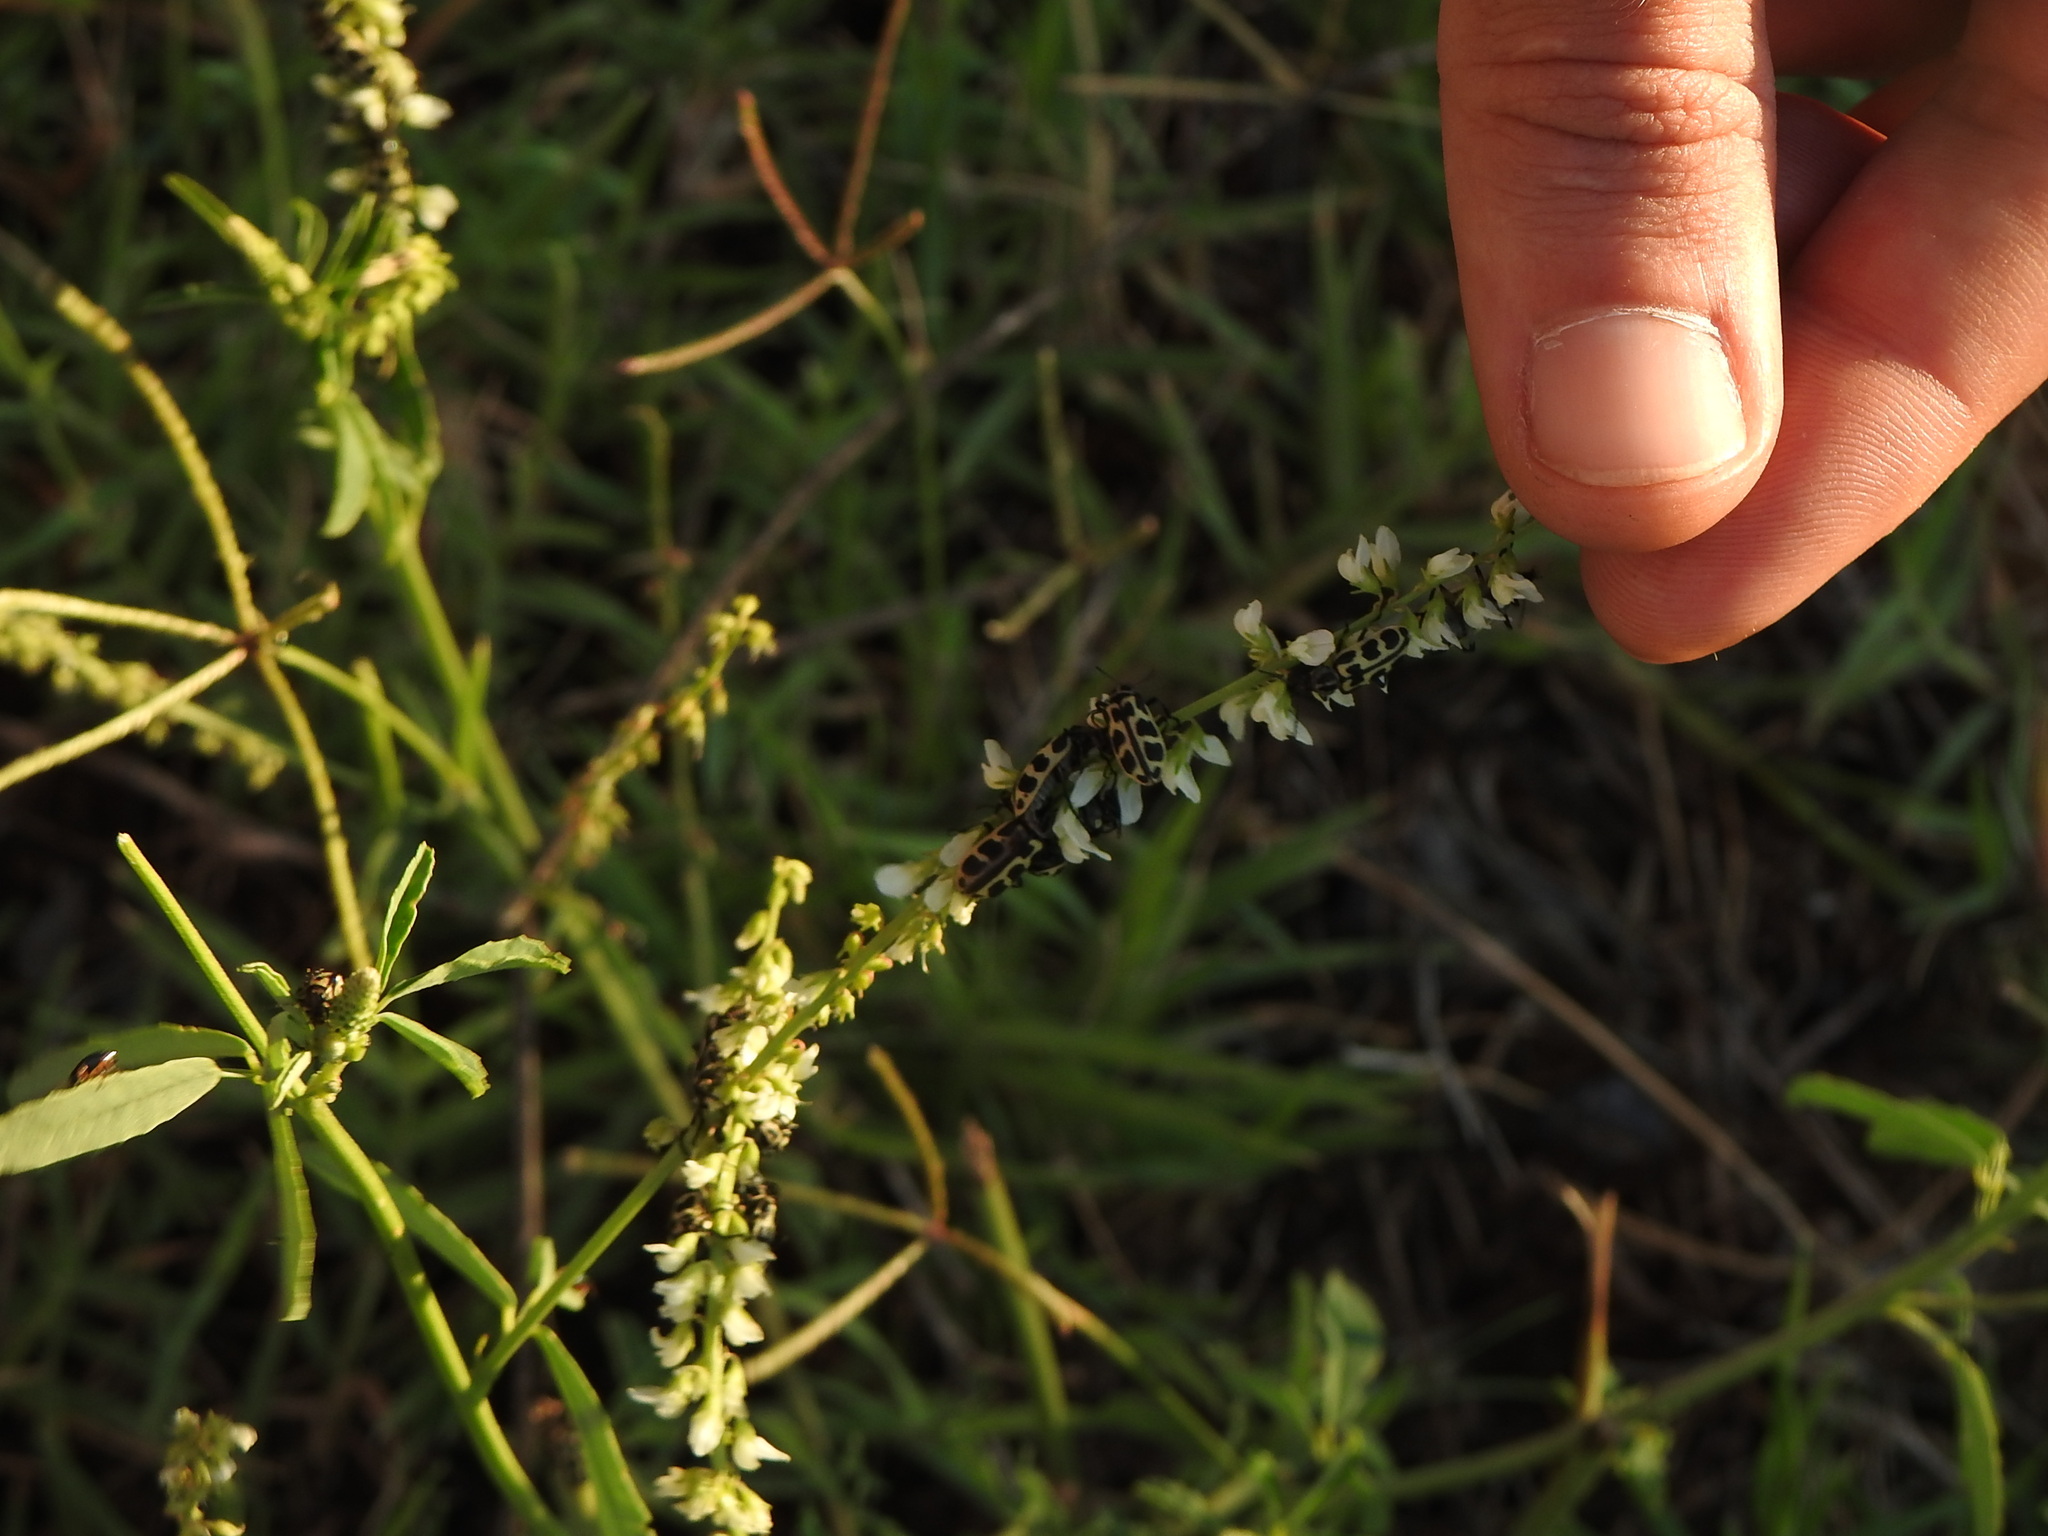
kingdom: Animalia
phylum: Arthropoda
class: Insecta
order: Coleoptera
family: Melyridae
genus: Astylus
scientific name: Astylus atromaculatus
